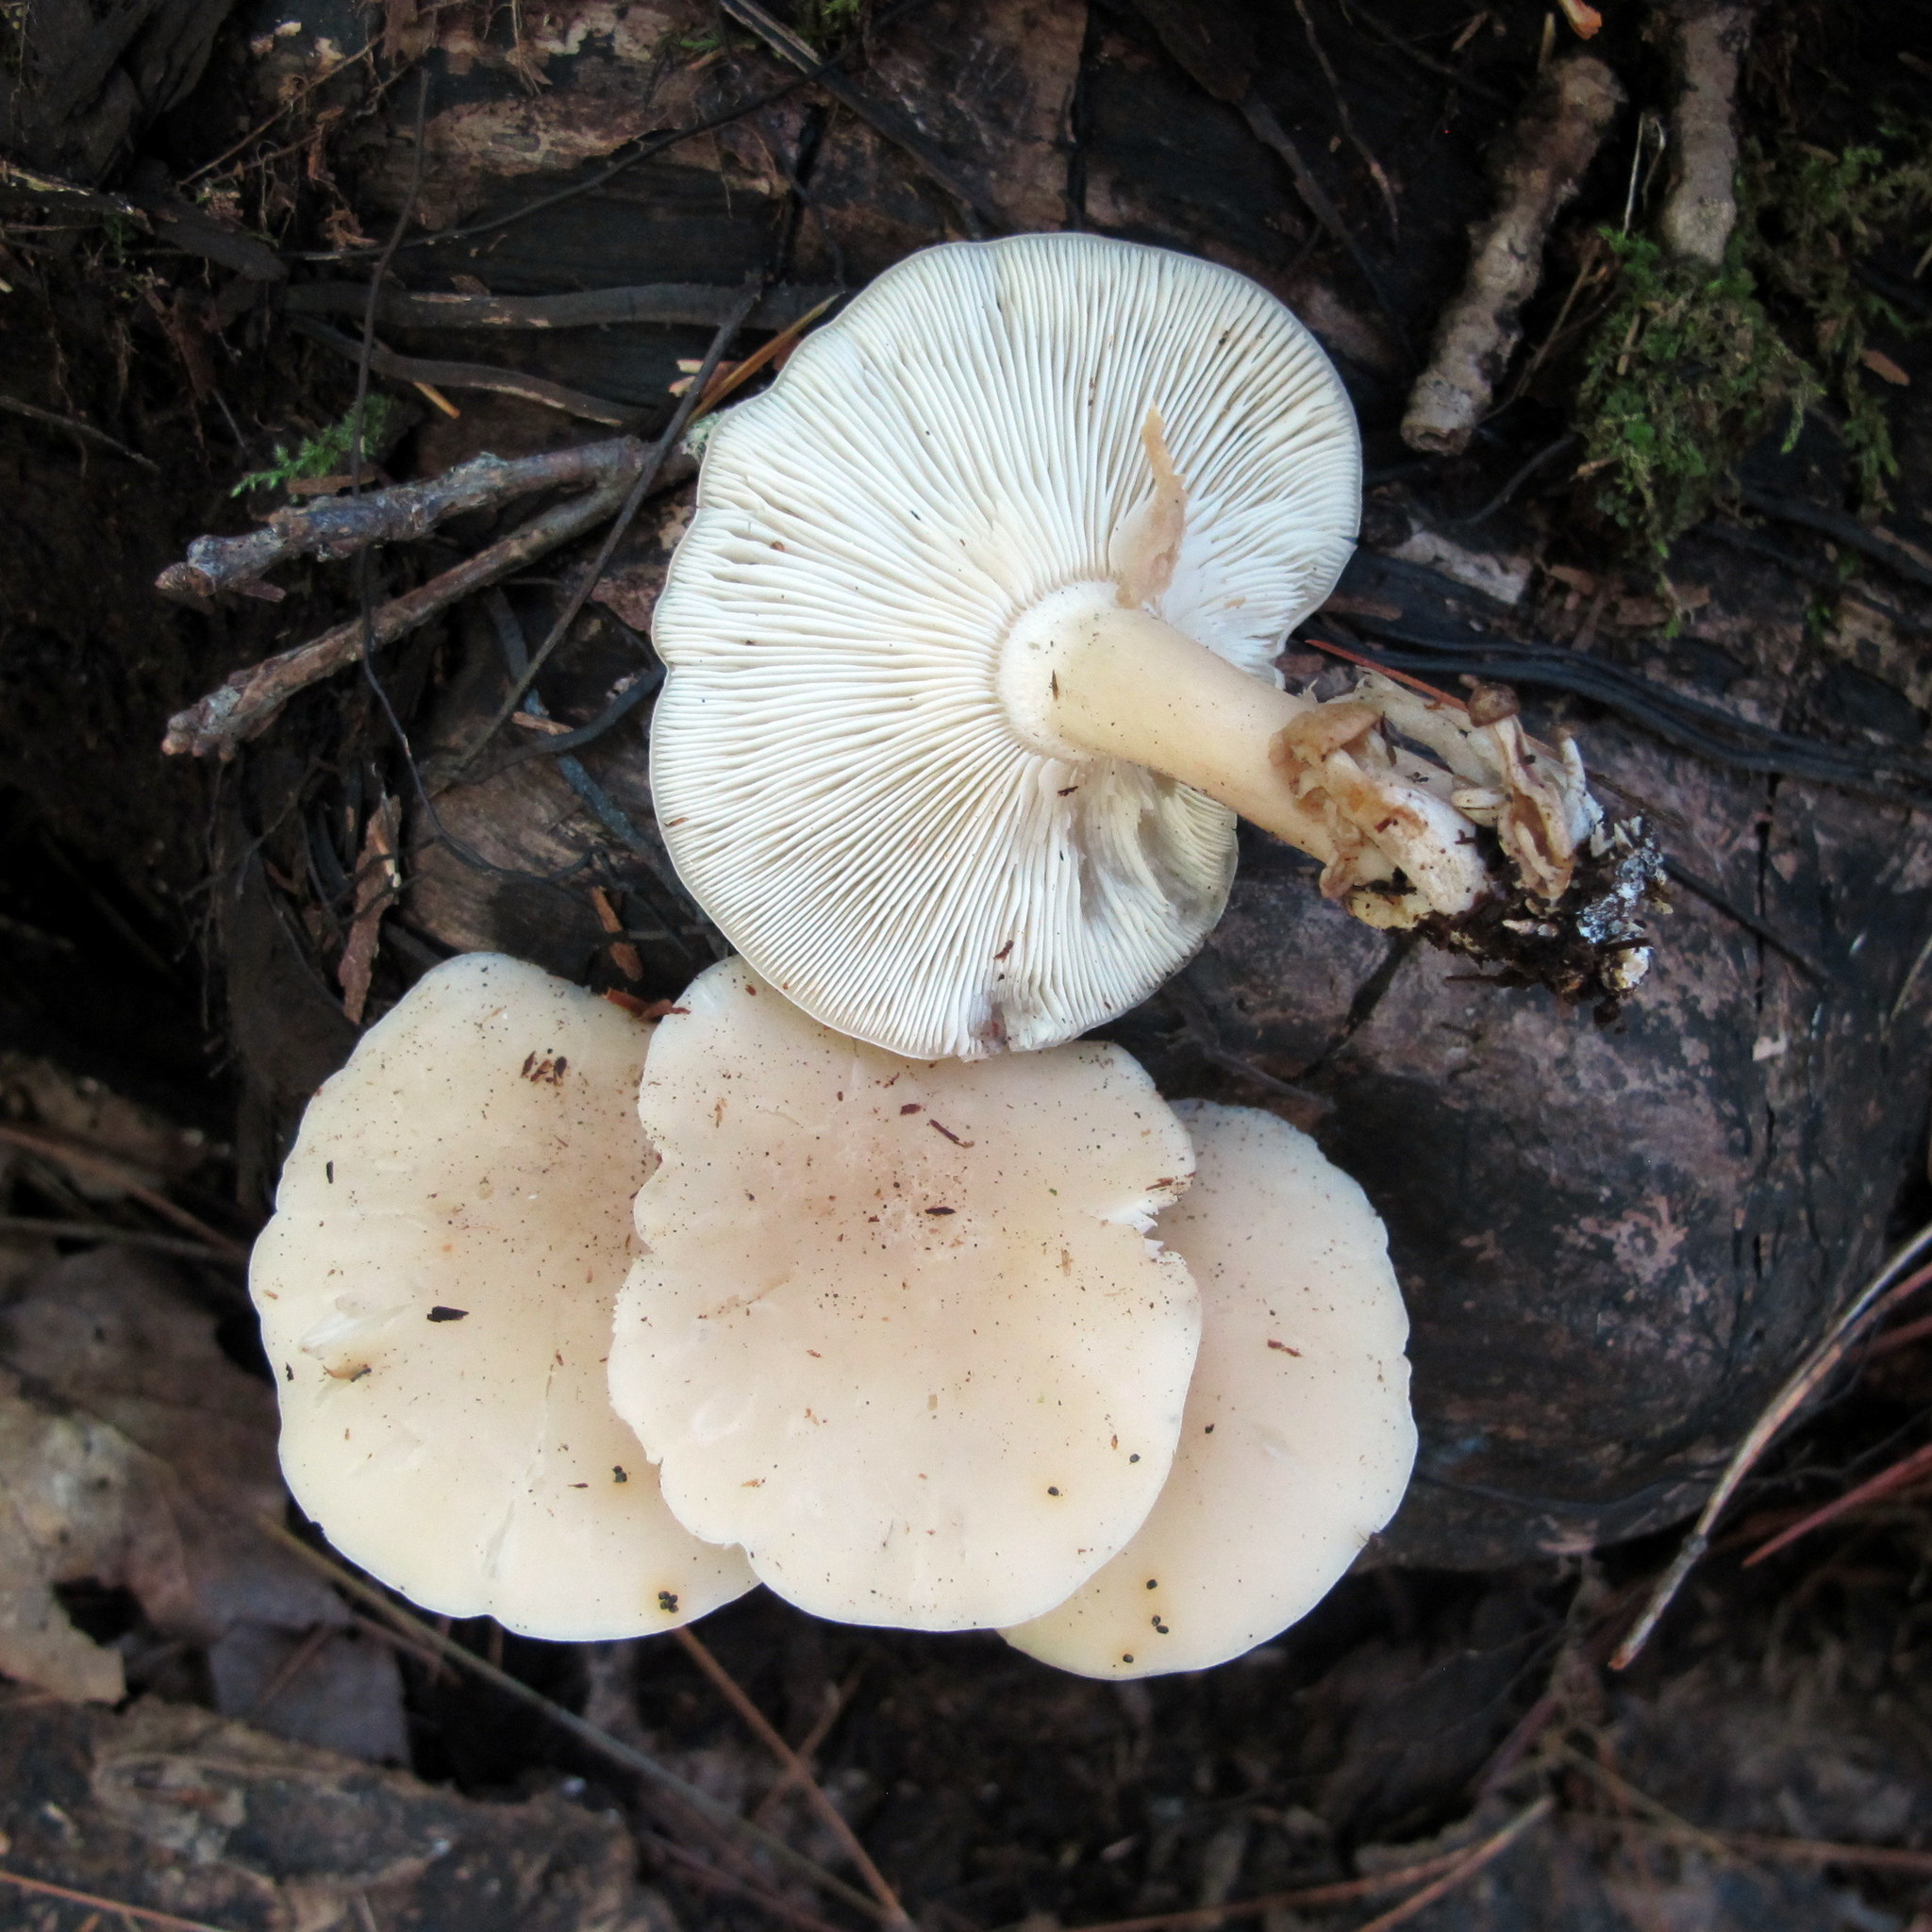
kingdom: Fungi
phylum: Basidiomycota
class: Agaricomycetes
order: Agaricales
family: Lyophyllaceae
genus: Hypsizygus
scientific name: Hypsizygus marmoreus
